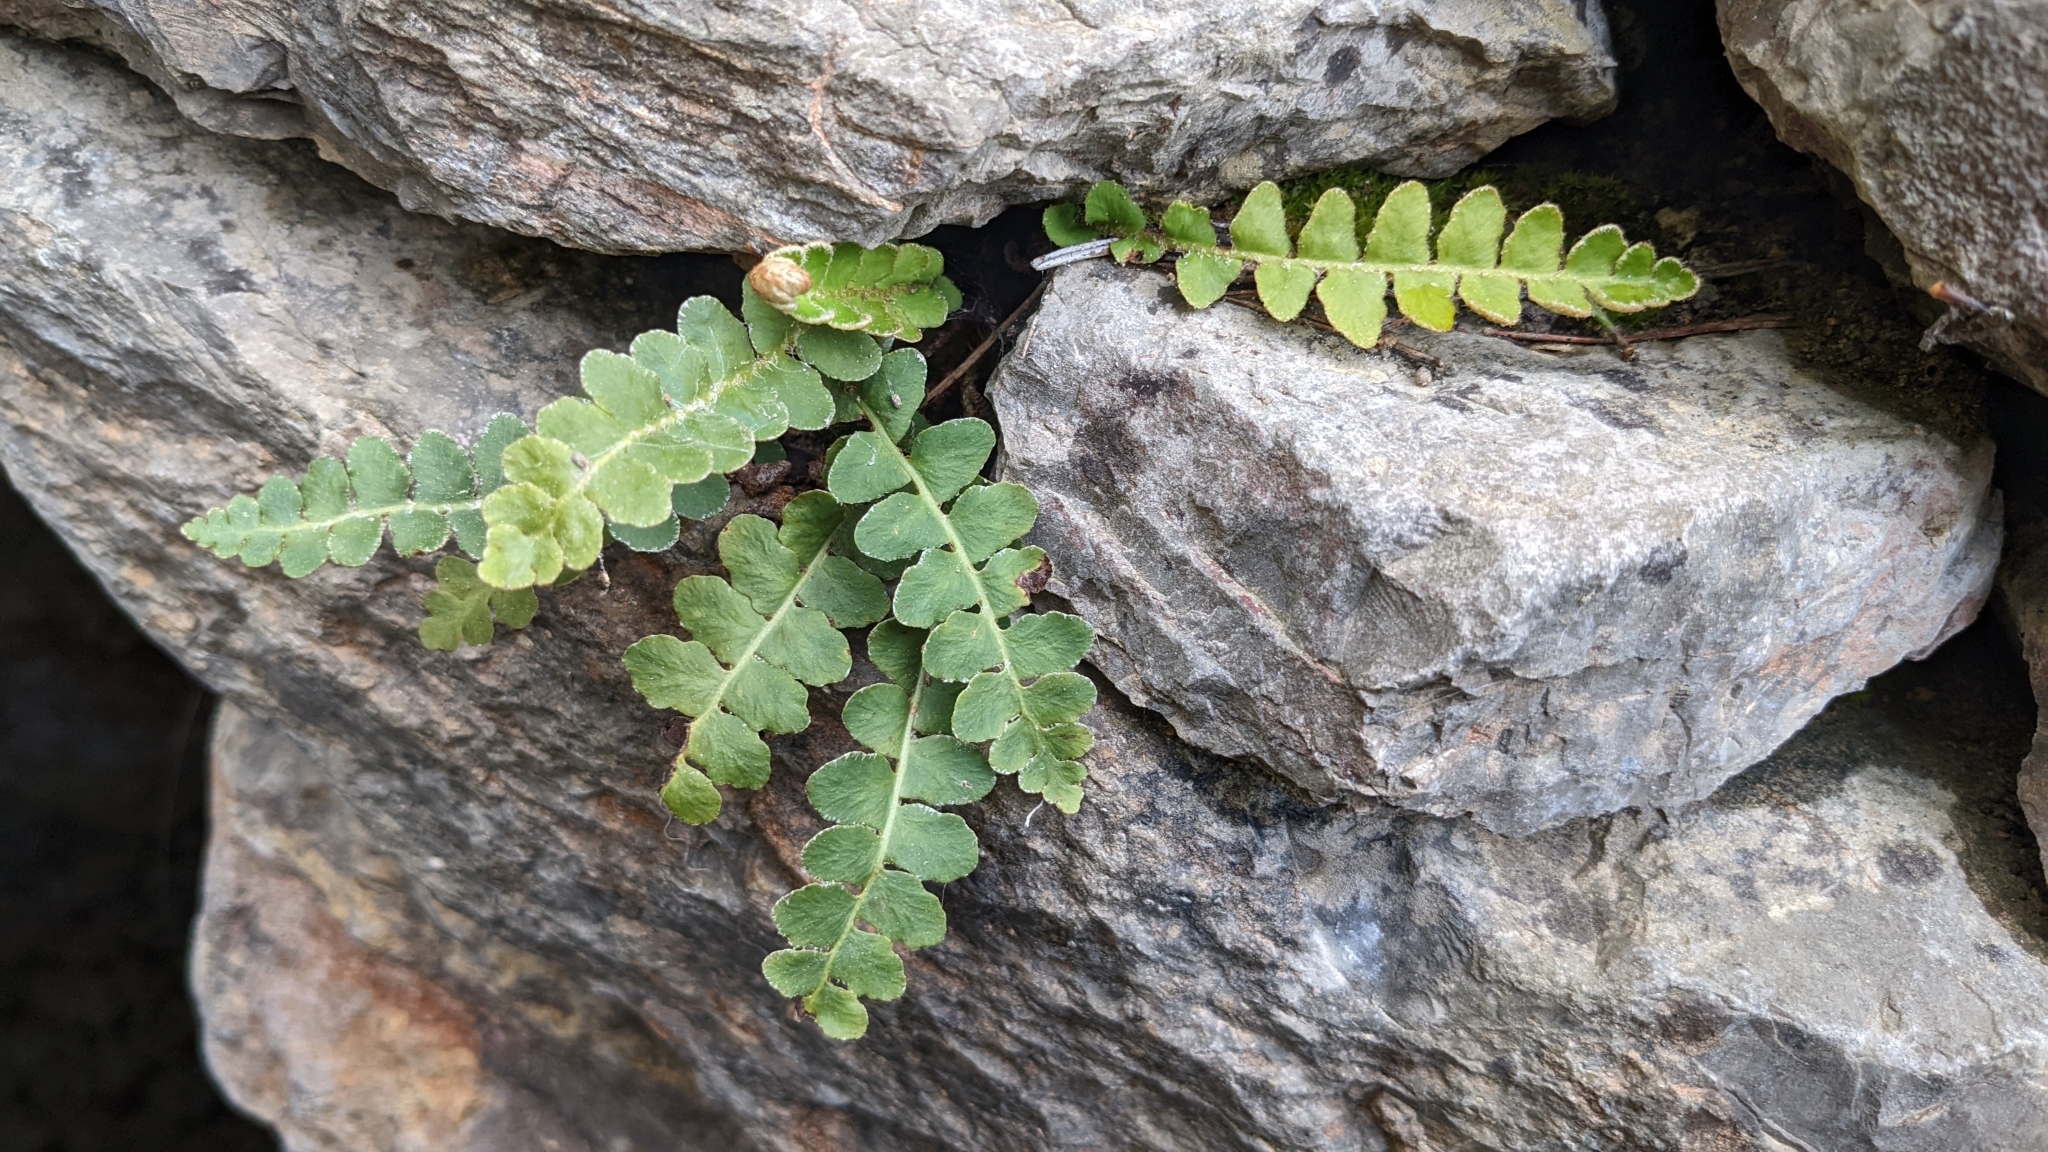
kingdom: Plantae
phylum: Tracheophyta
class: Polypodiopsida
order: Polypodiales
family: Aspleniaceae
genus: Asplenium
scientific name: Asplenium ceterach
